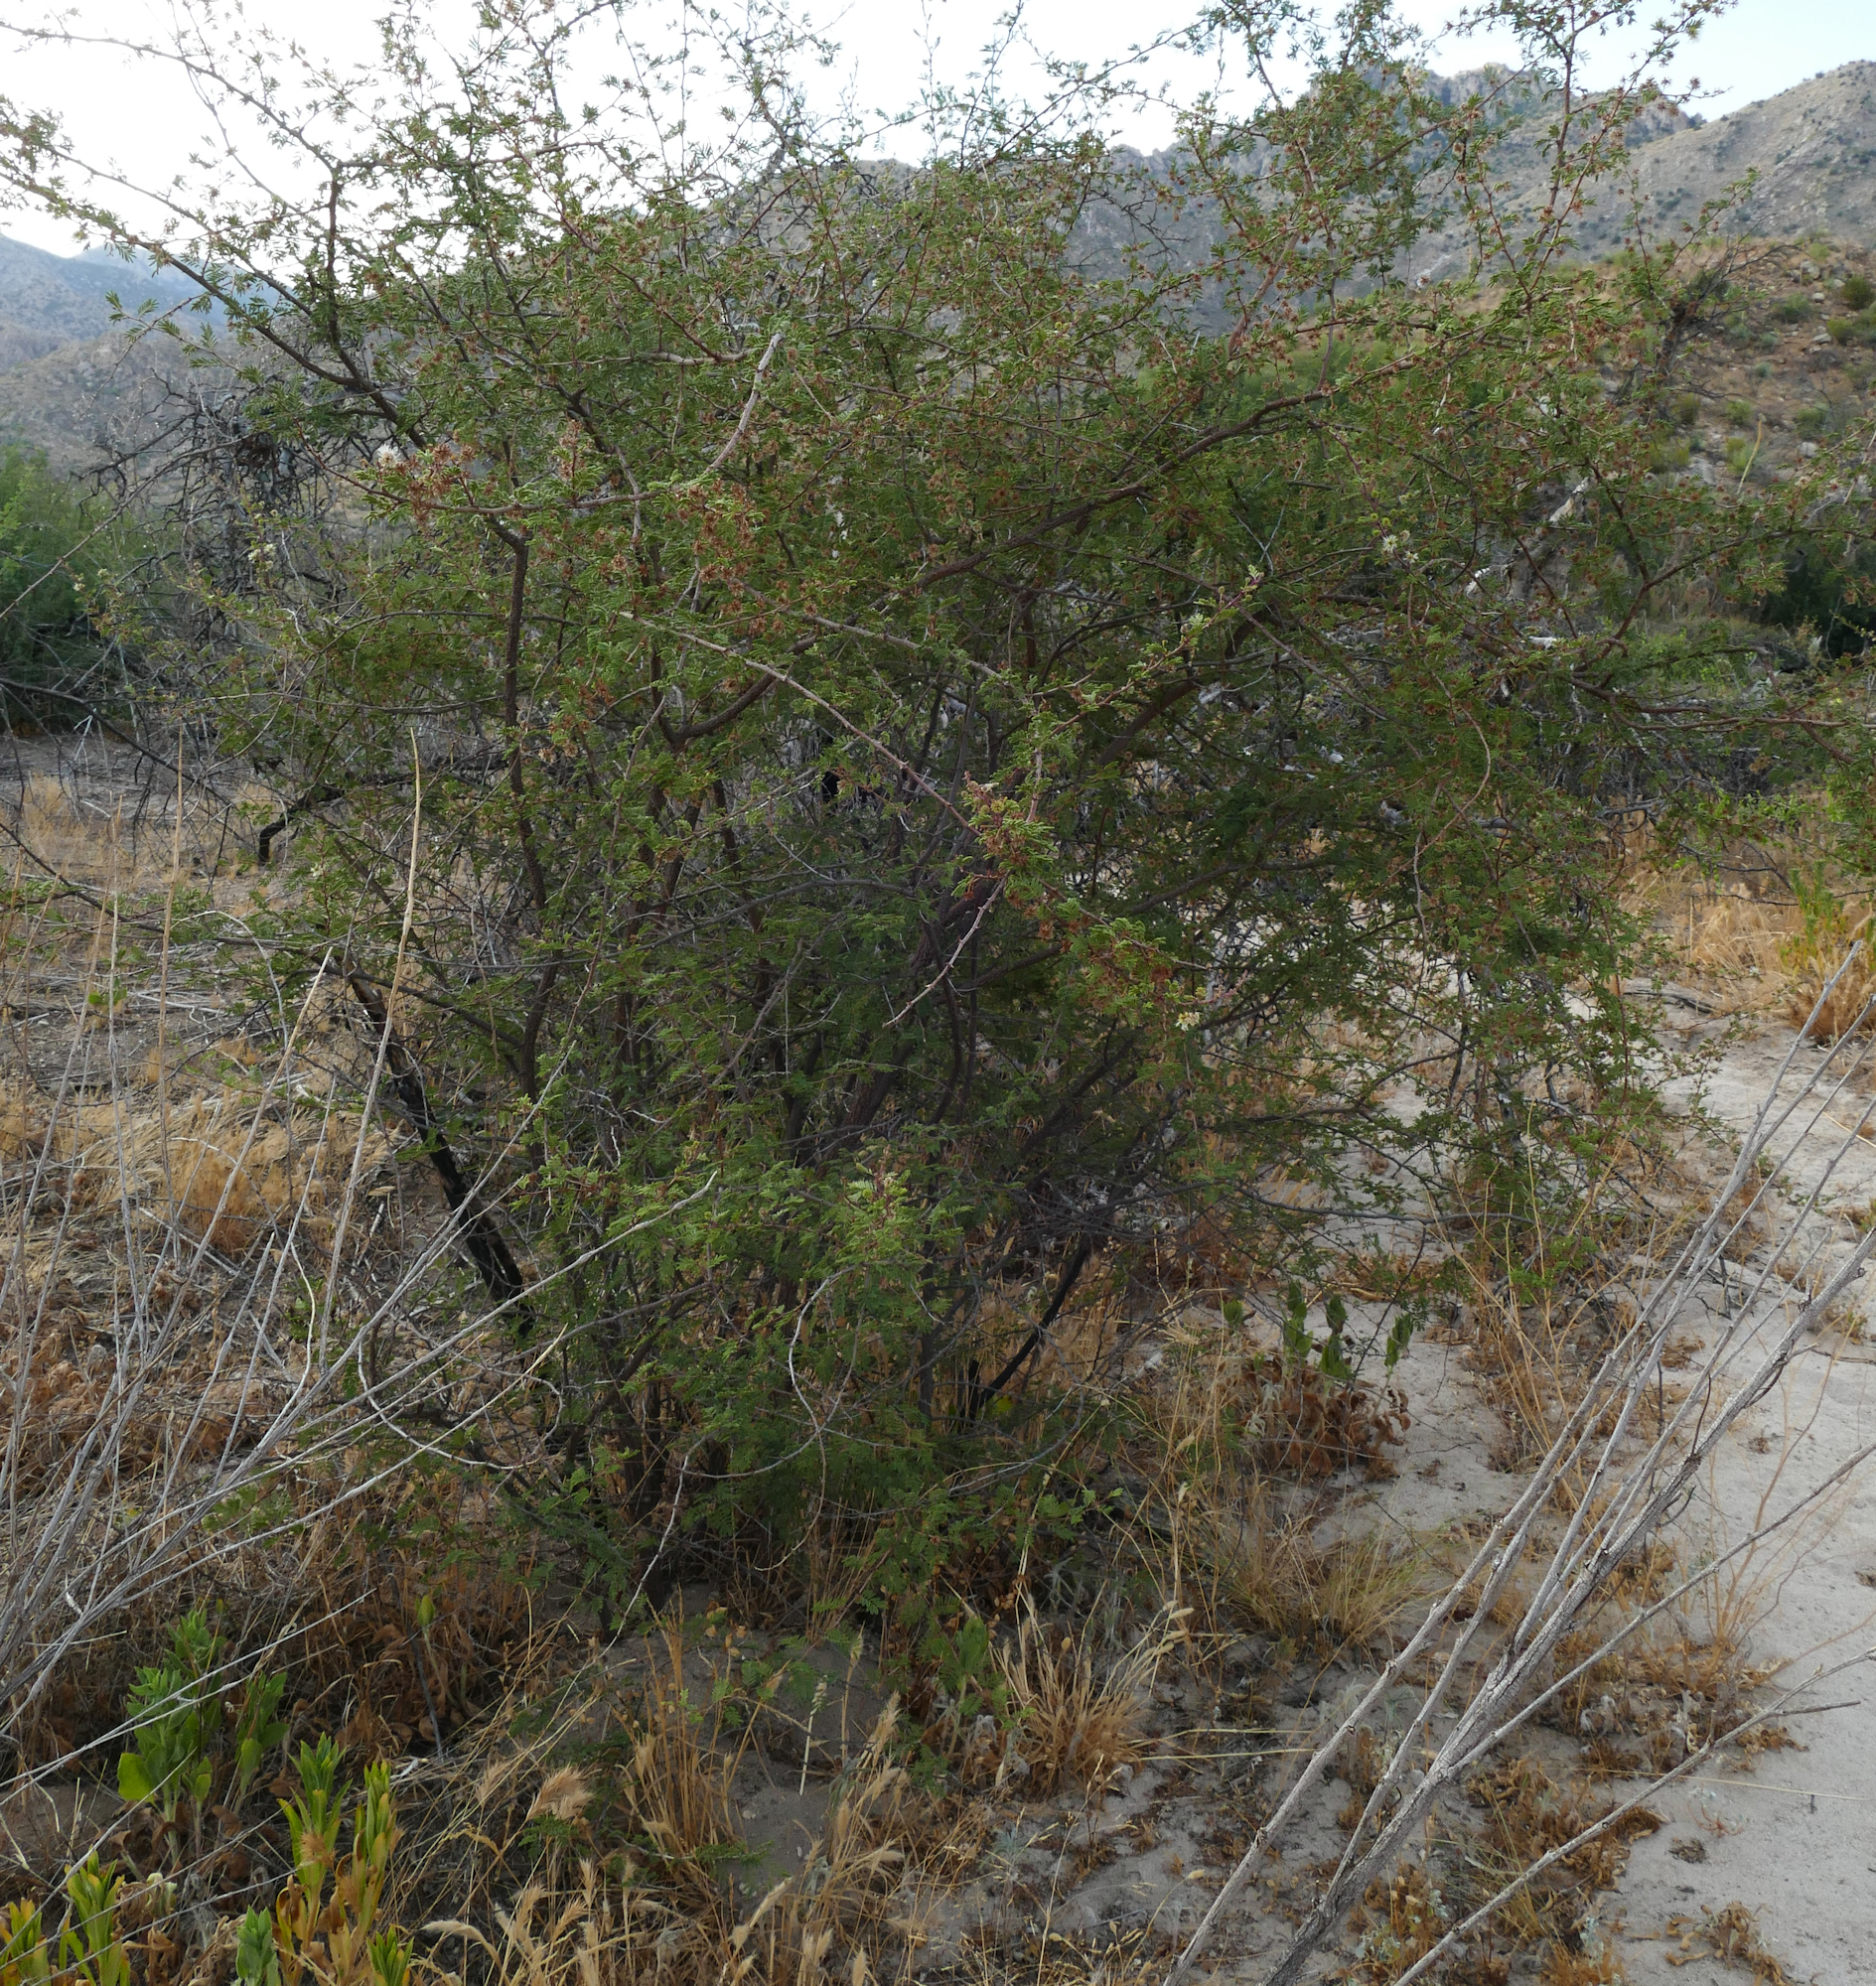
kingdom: Plantae
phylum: Tracheophyta
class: Magnoliopsida
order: Fabales
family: Fabaceae
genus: Mimosa
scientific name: Mimosa aculeaticarpa
